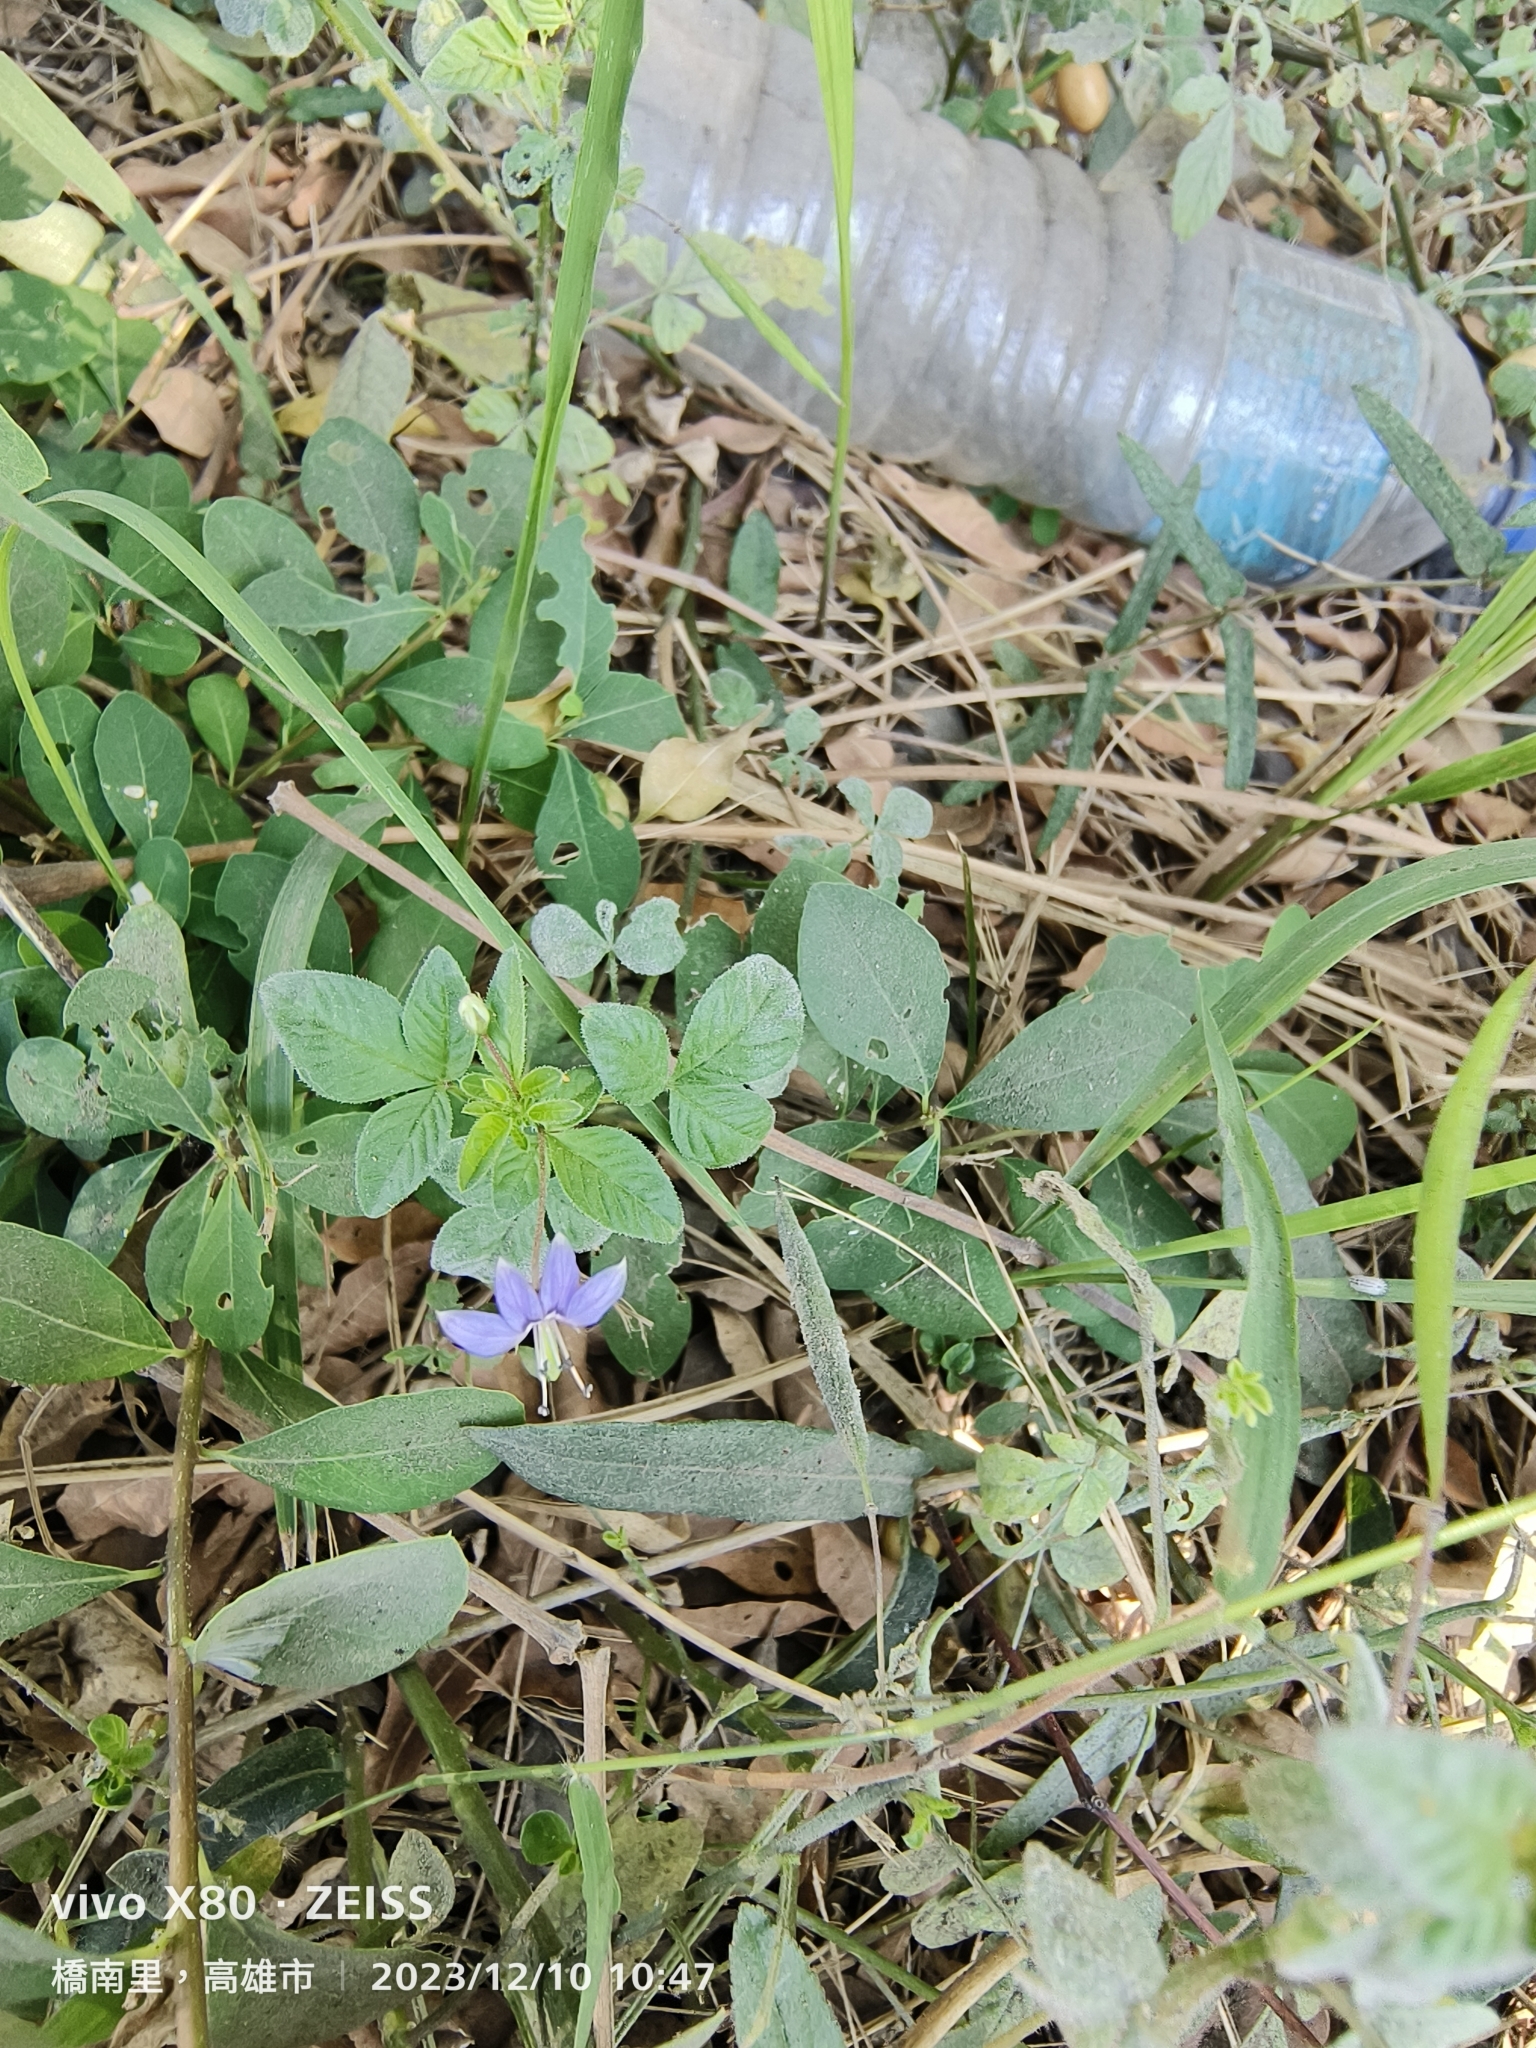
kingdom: Plantae
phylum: Tracheophyta
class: Magnoliopsida
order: Brassicales
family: Cleomaceae
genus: Sieruela
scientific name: Sieruela rutidosperma
